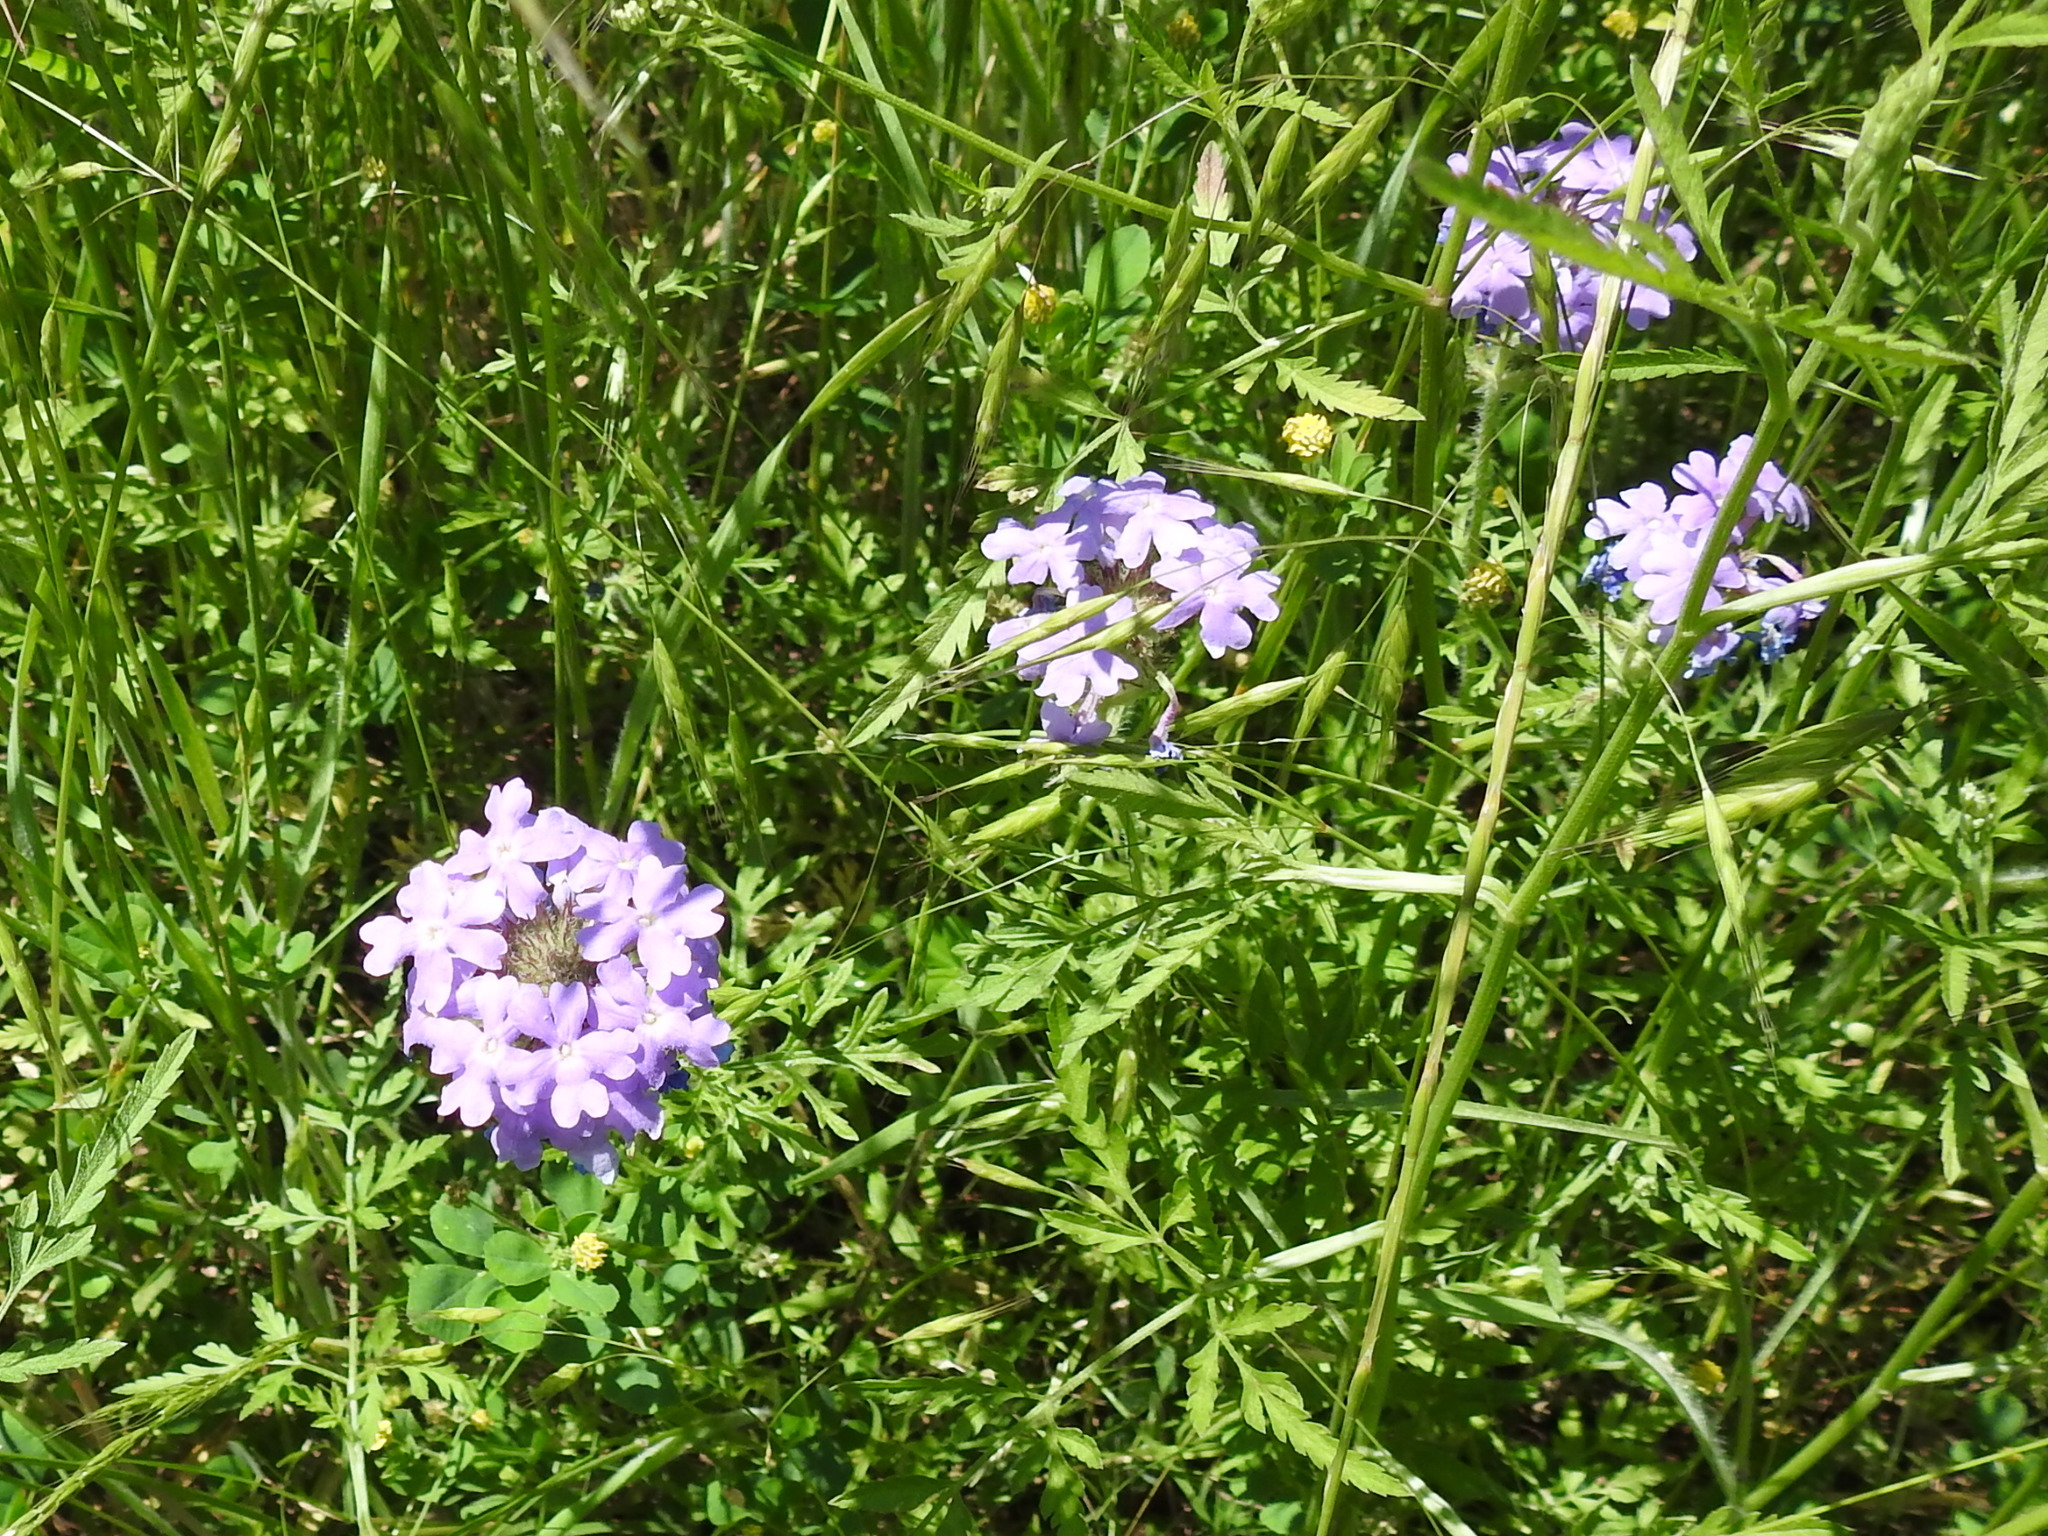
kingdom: Plantae
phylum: Tracheophyta
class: Magnoliopsida
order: Lamiales
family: Verbenaceae
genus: Verbena
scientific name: Verbena bipinnatifida
